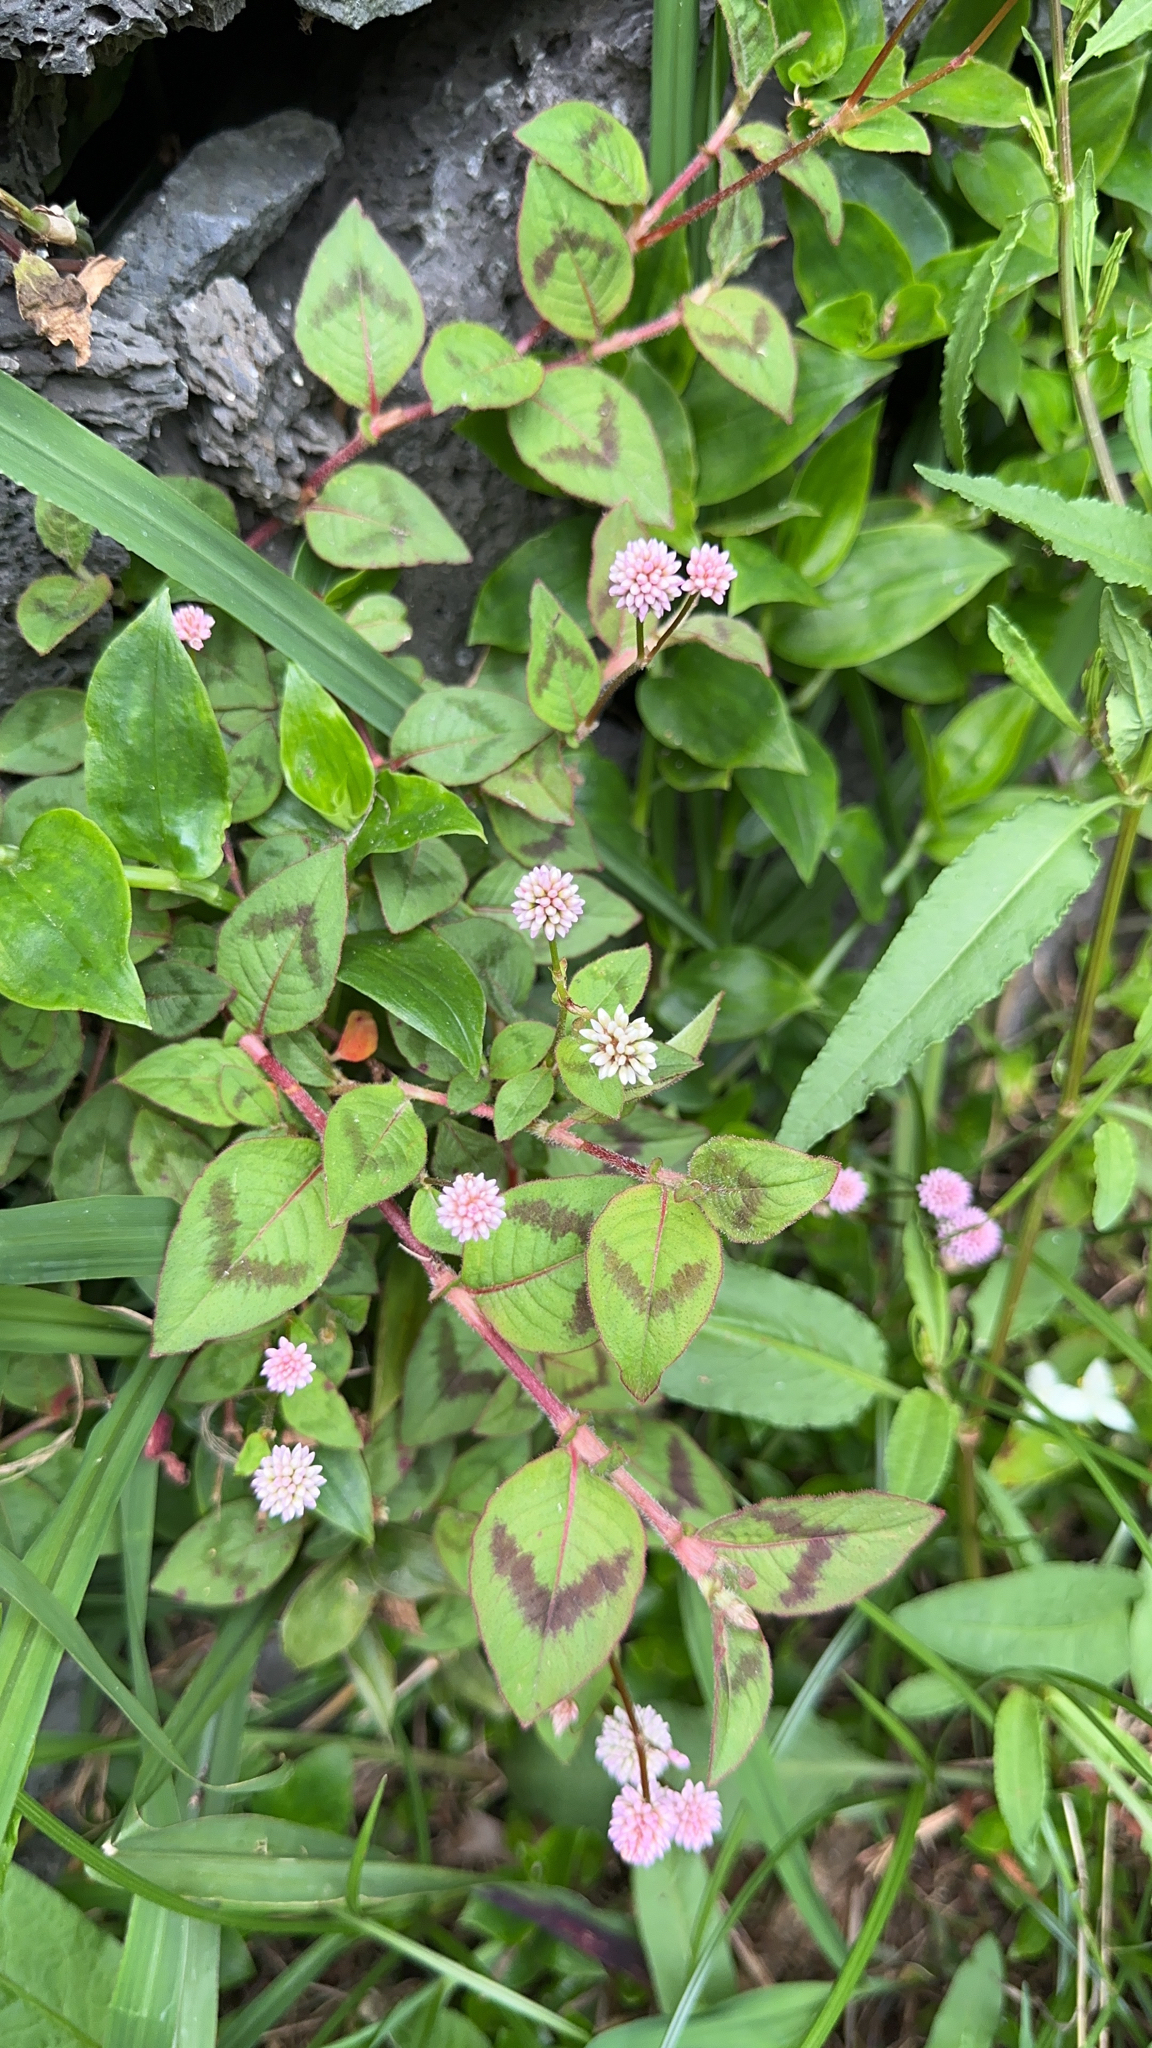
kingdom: Plantae
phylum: Tracheophyta
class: Magnoliopsida
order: Caryophyllales
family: Polygonaceae
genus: Persicaria
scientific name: Persicaria capitata
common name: Pinkhead smartweed
